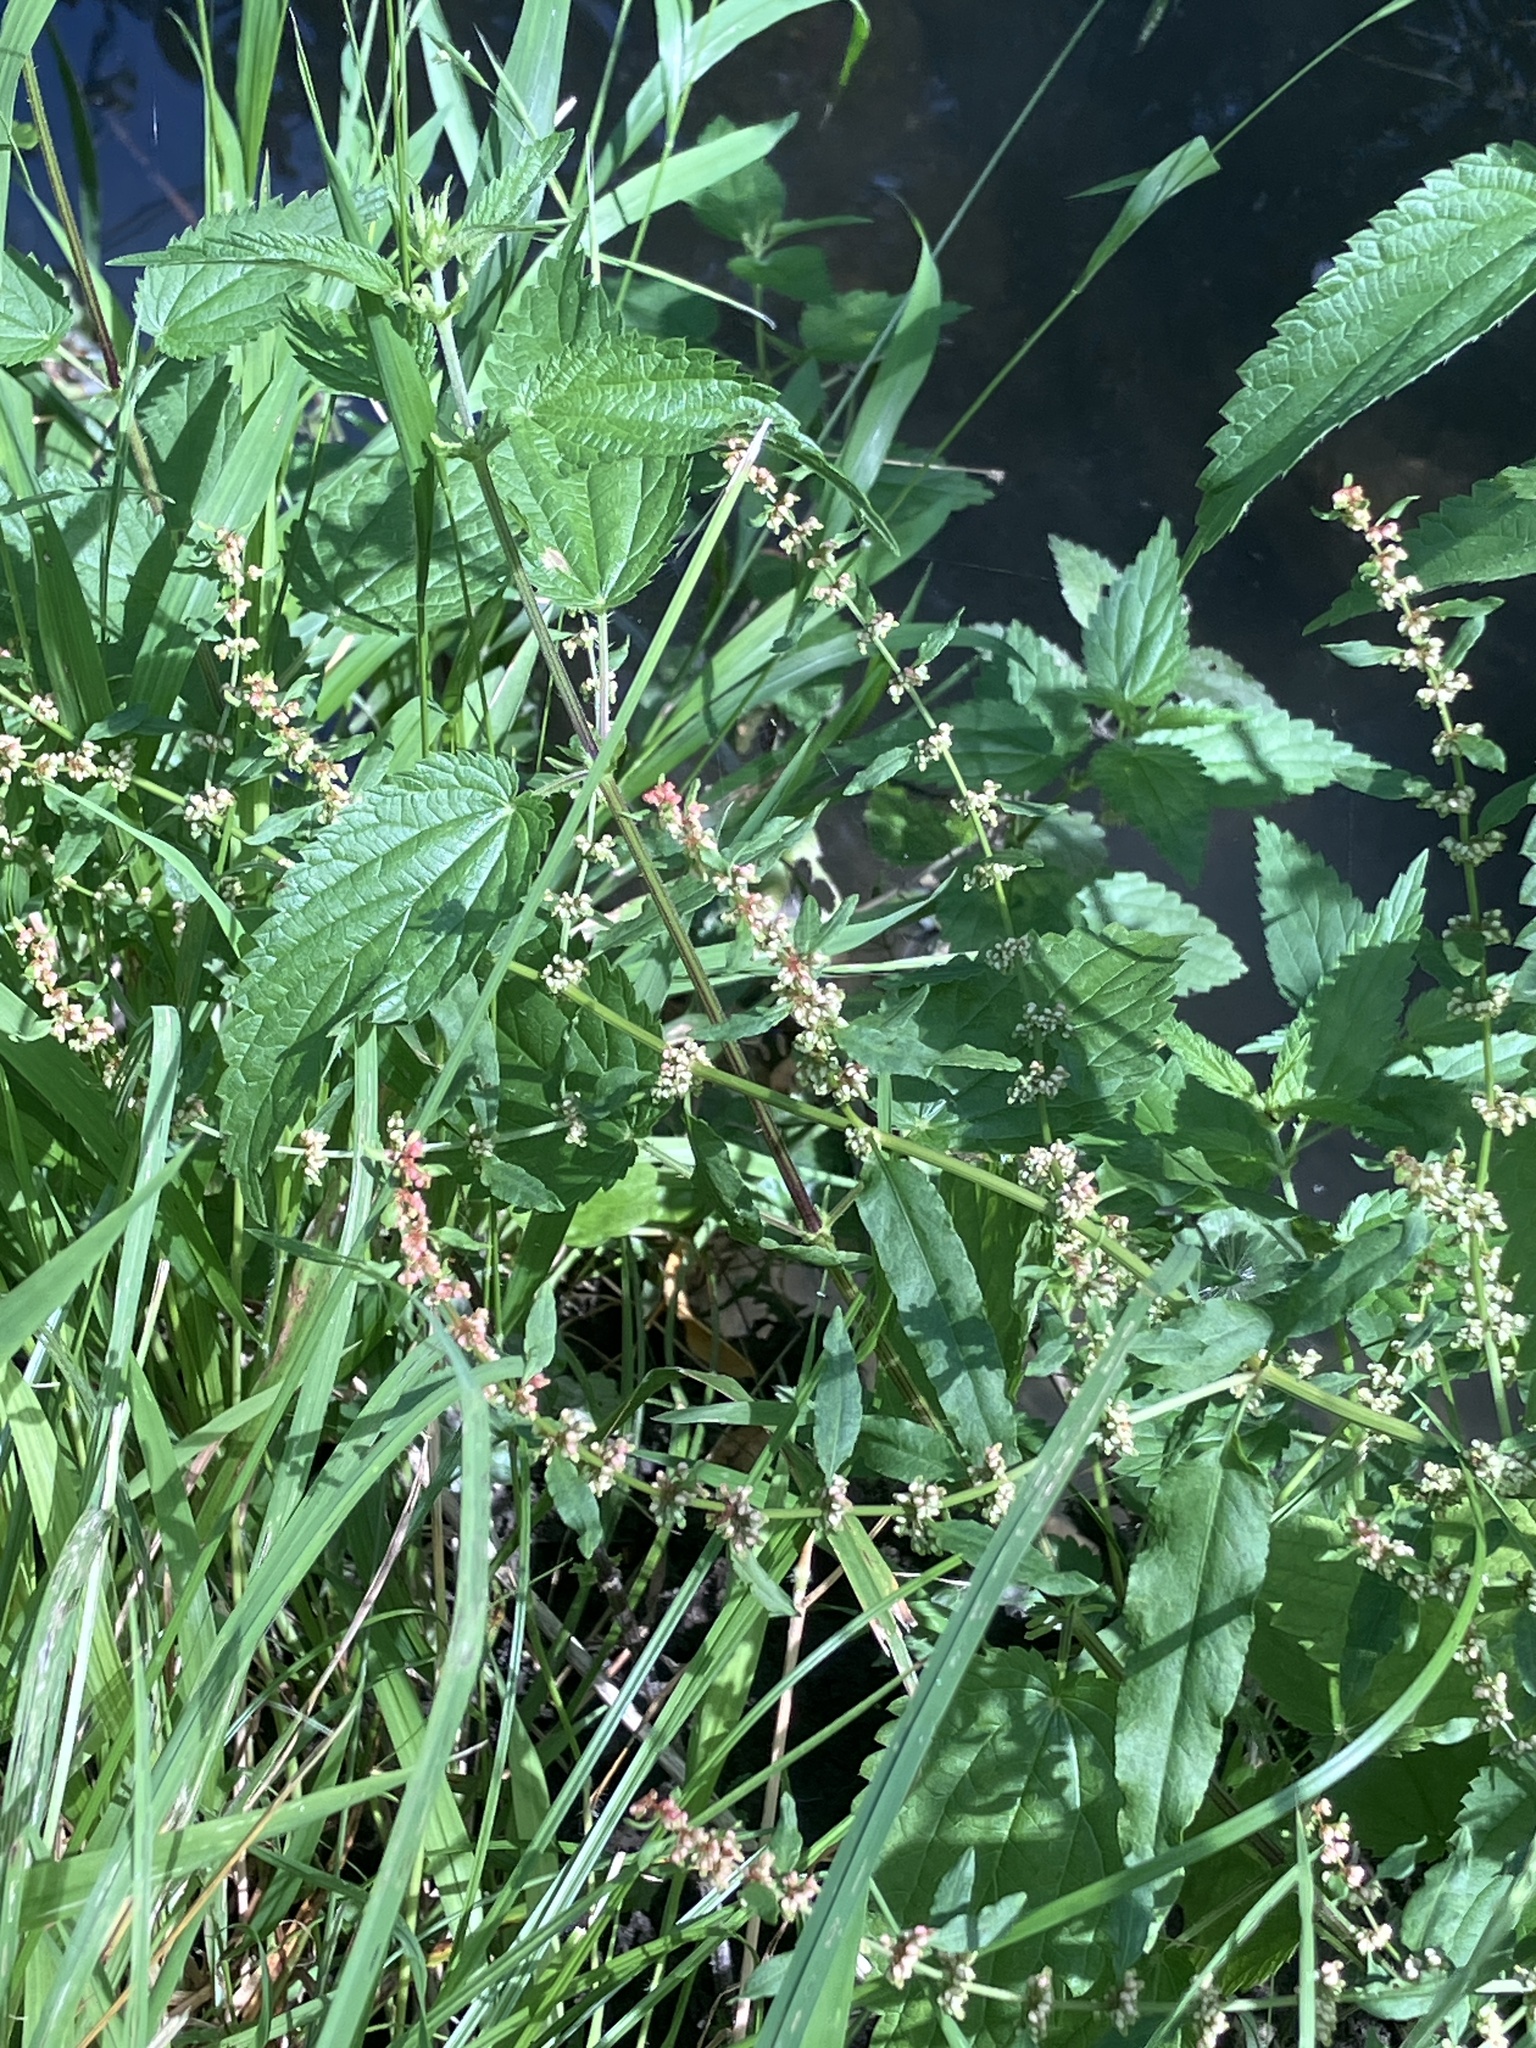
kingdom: Plantae
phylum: Tracheophyta
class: Magnoliopsida
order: Caryophyllales
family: Polygonaceae
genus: Rumex
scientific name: Rumex conglomeratus
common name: Clustered dock
